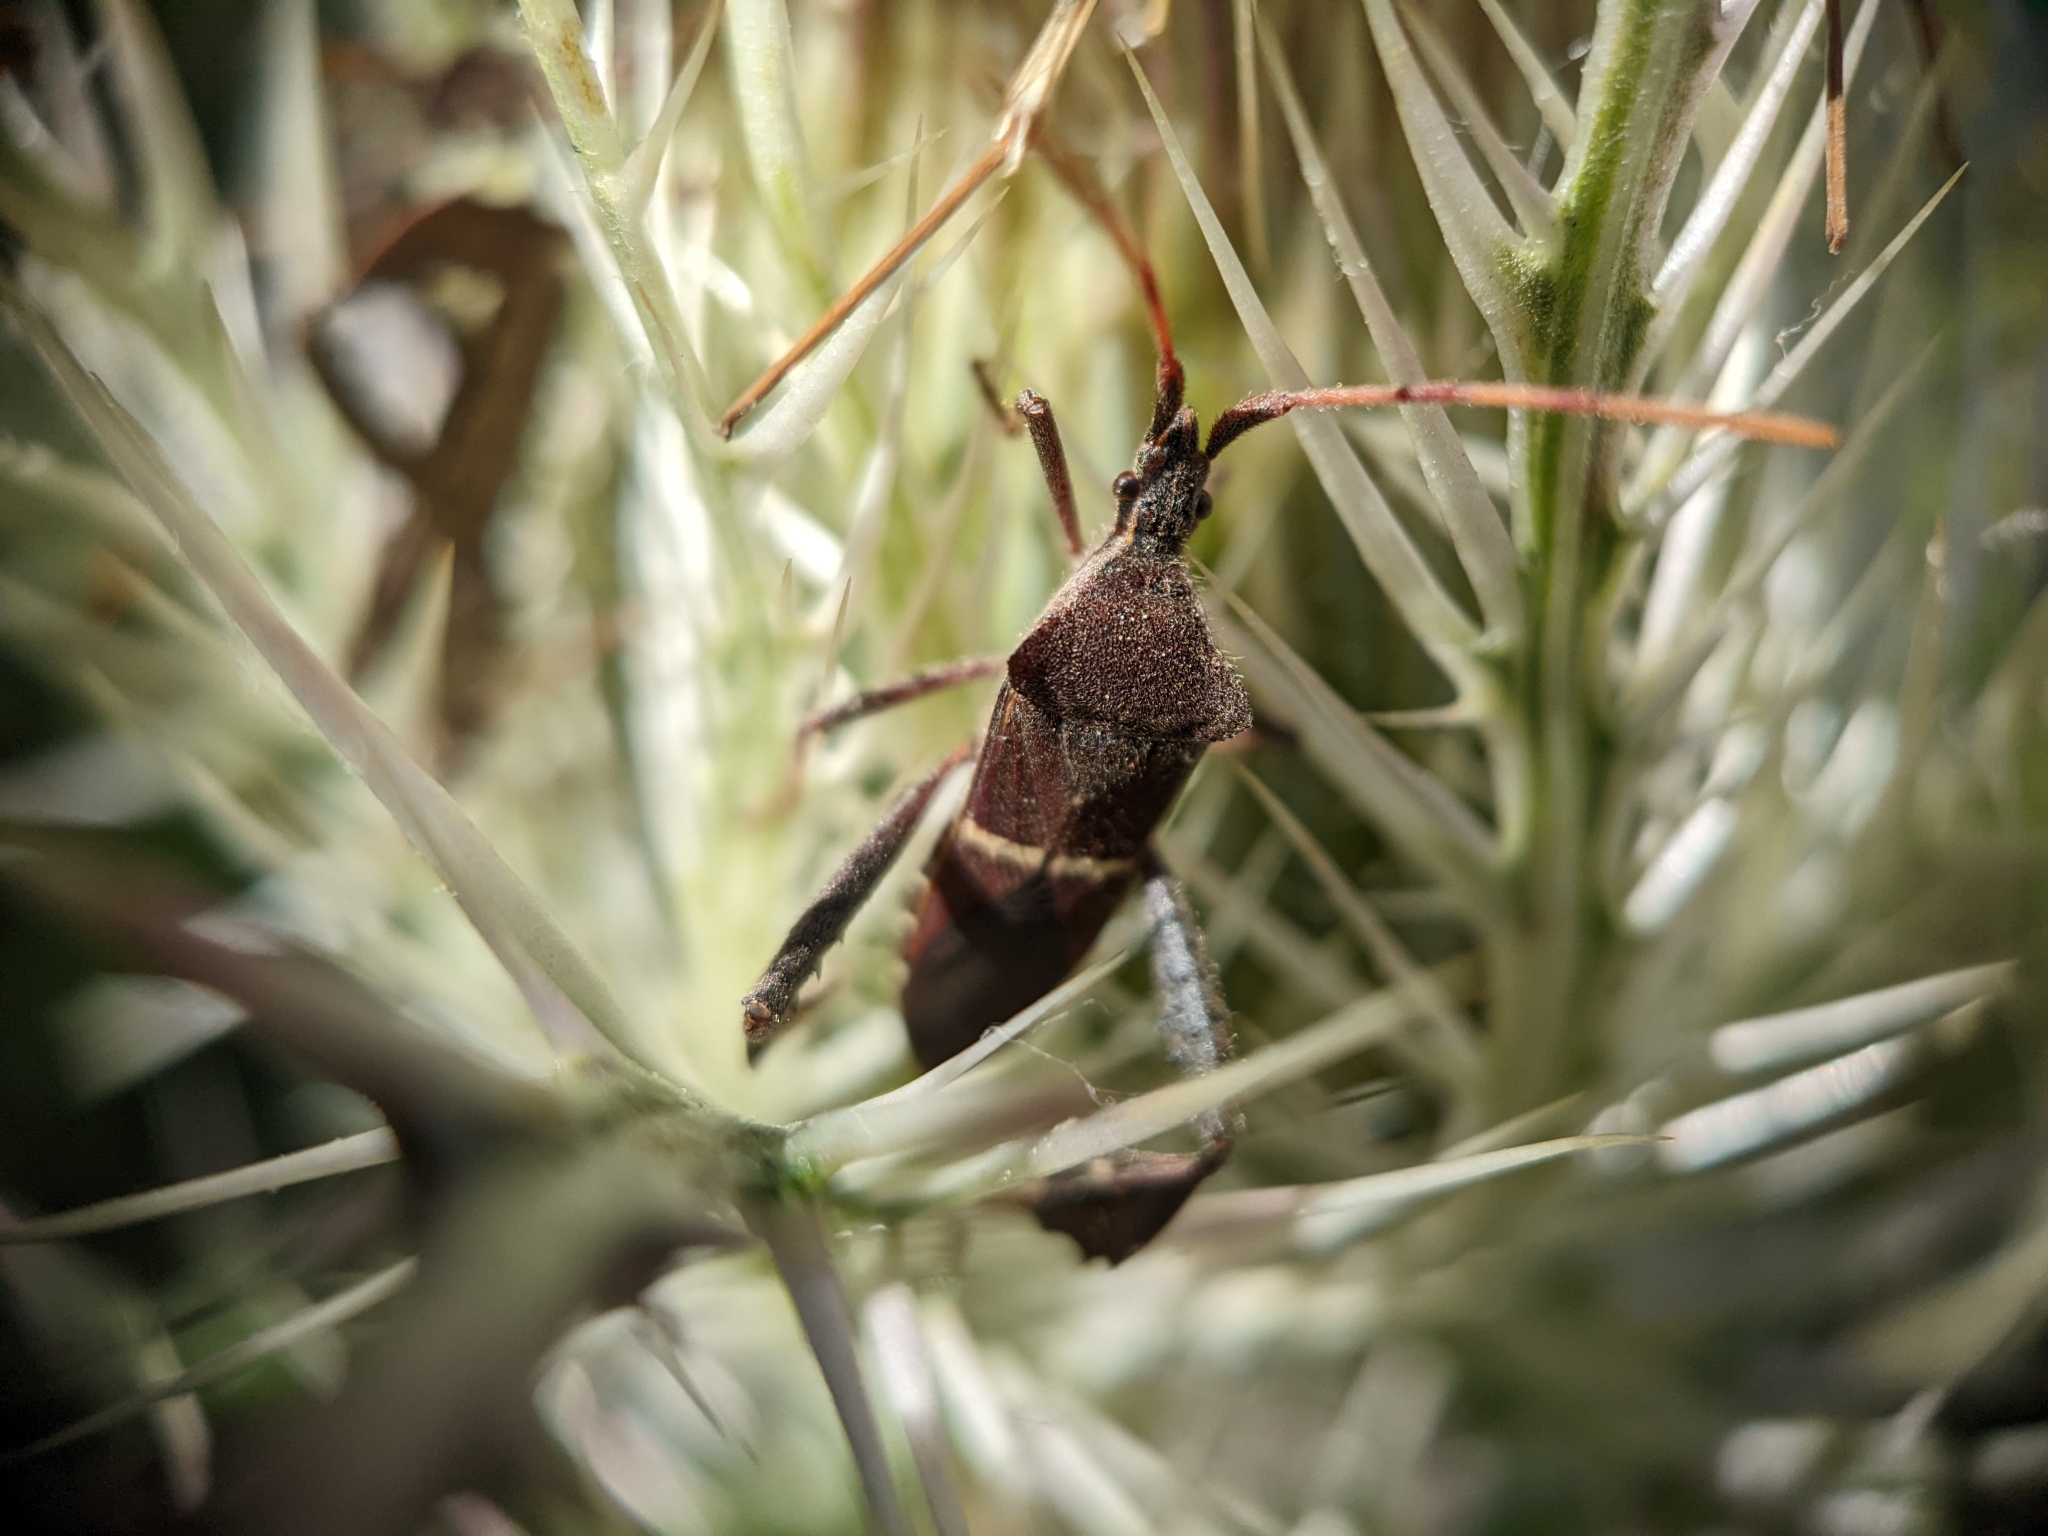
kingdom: Animalia
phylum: Arthropoda
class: Insecta
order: Hemiptera
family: Coreidae
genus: Leptoglossus
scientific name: Leptoglossus phyllopus
